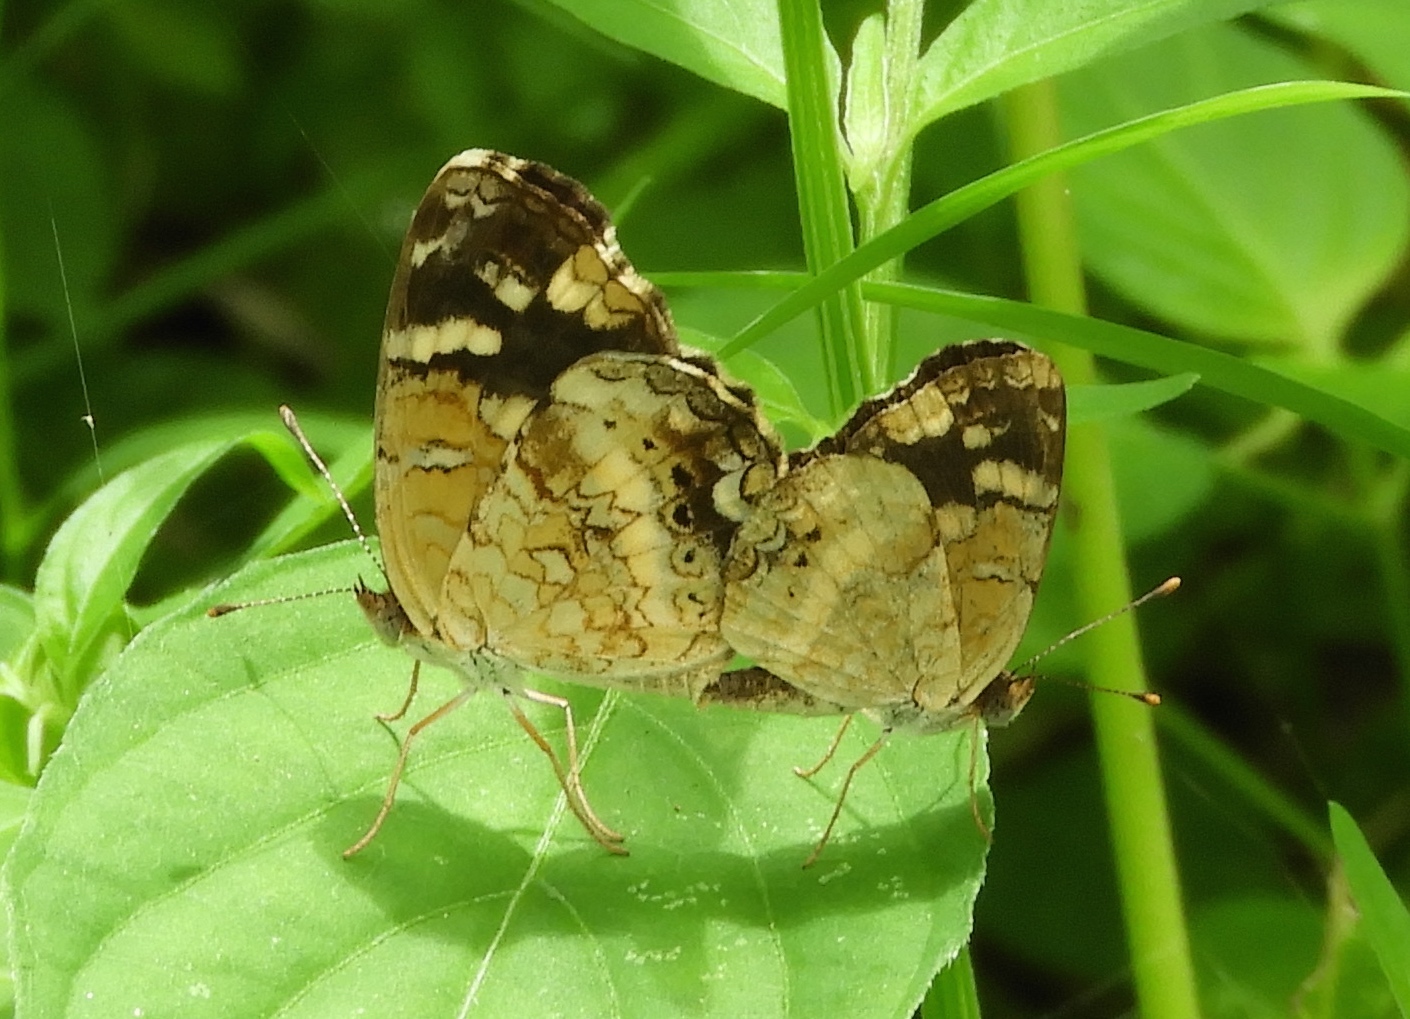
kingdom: Animalia
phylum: Arthropoda
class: Insecta
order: Lepidoptera
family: Nymphalidae
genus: Anthanassa
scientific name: Anthanassa tulcis
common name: Pale-banded crescent
